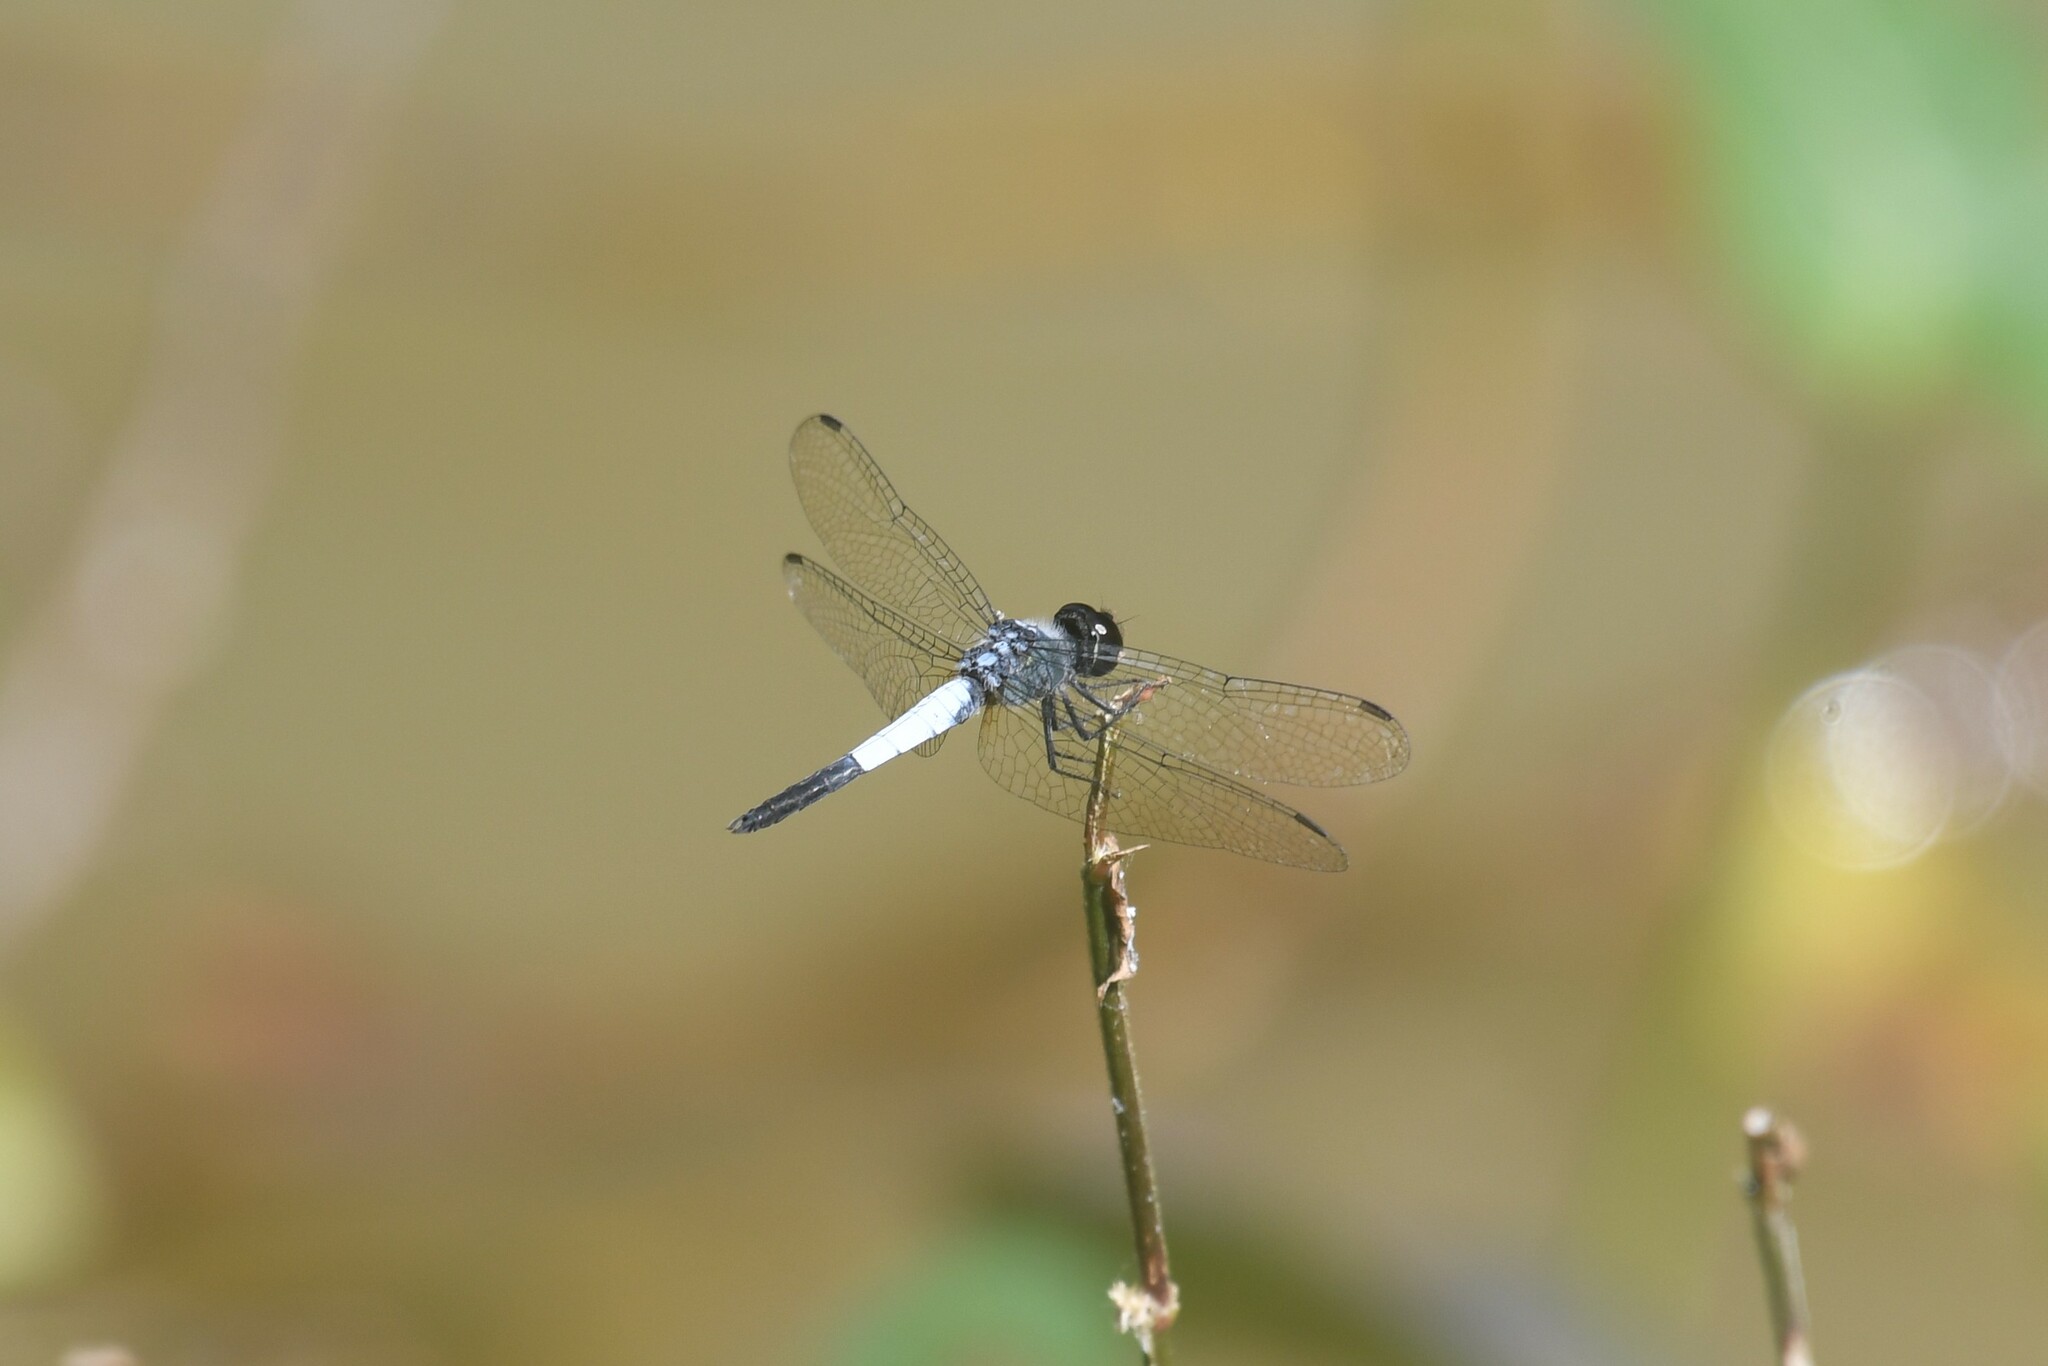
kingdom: Animalia
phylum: Arthropoda
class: Insecta
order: Odonata
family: Libellulidae
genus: Brachydiplax
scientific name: Brachydiplax farinosa
